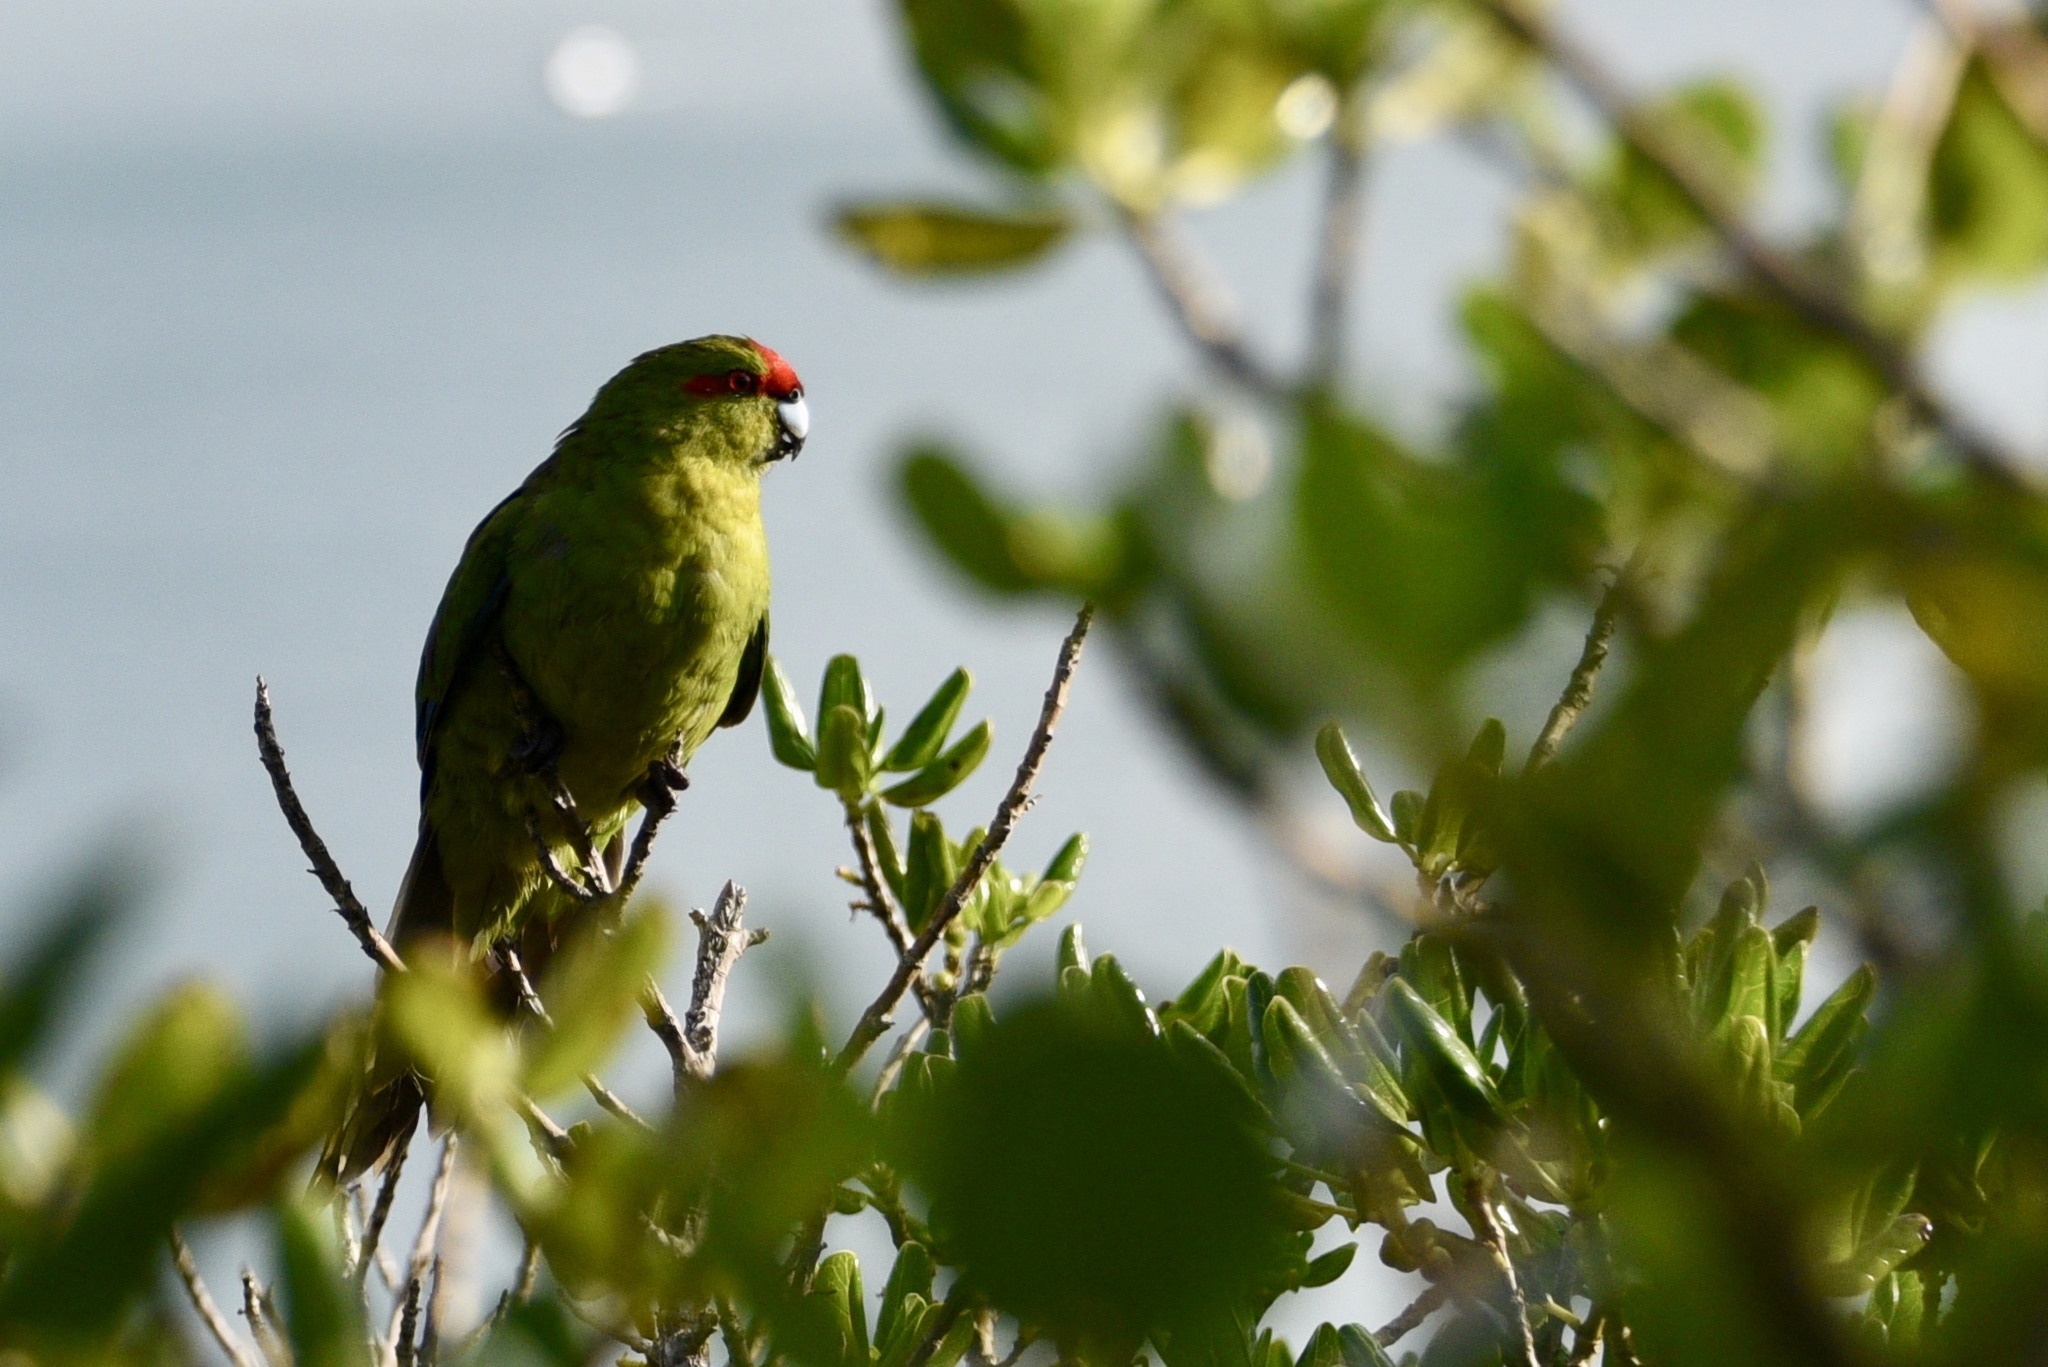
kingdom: Animalia
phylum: Chordata
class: Aves
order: Psittaciformes
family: Psittacidae
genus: Cyanoramphus
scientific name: Cyanoramphus novaezelandiae
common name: Red-fronted parakeet
